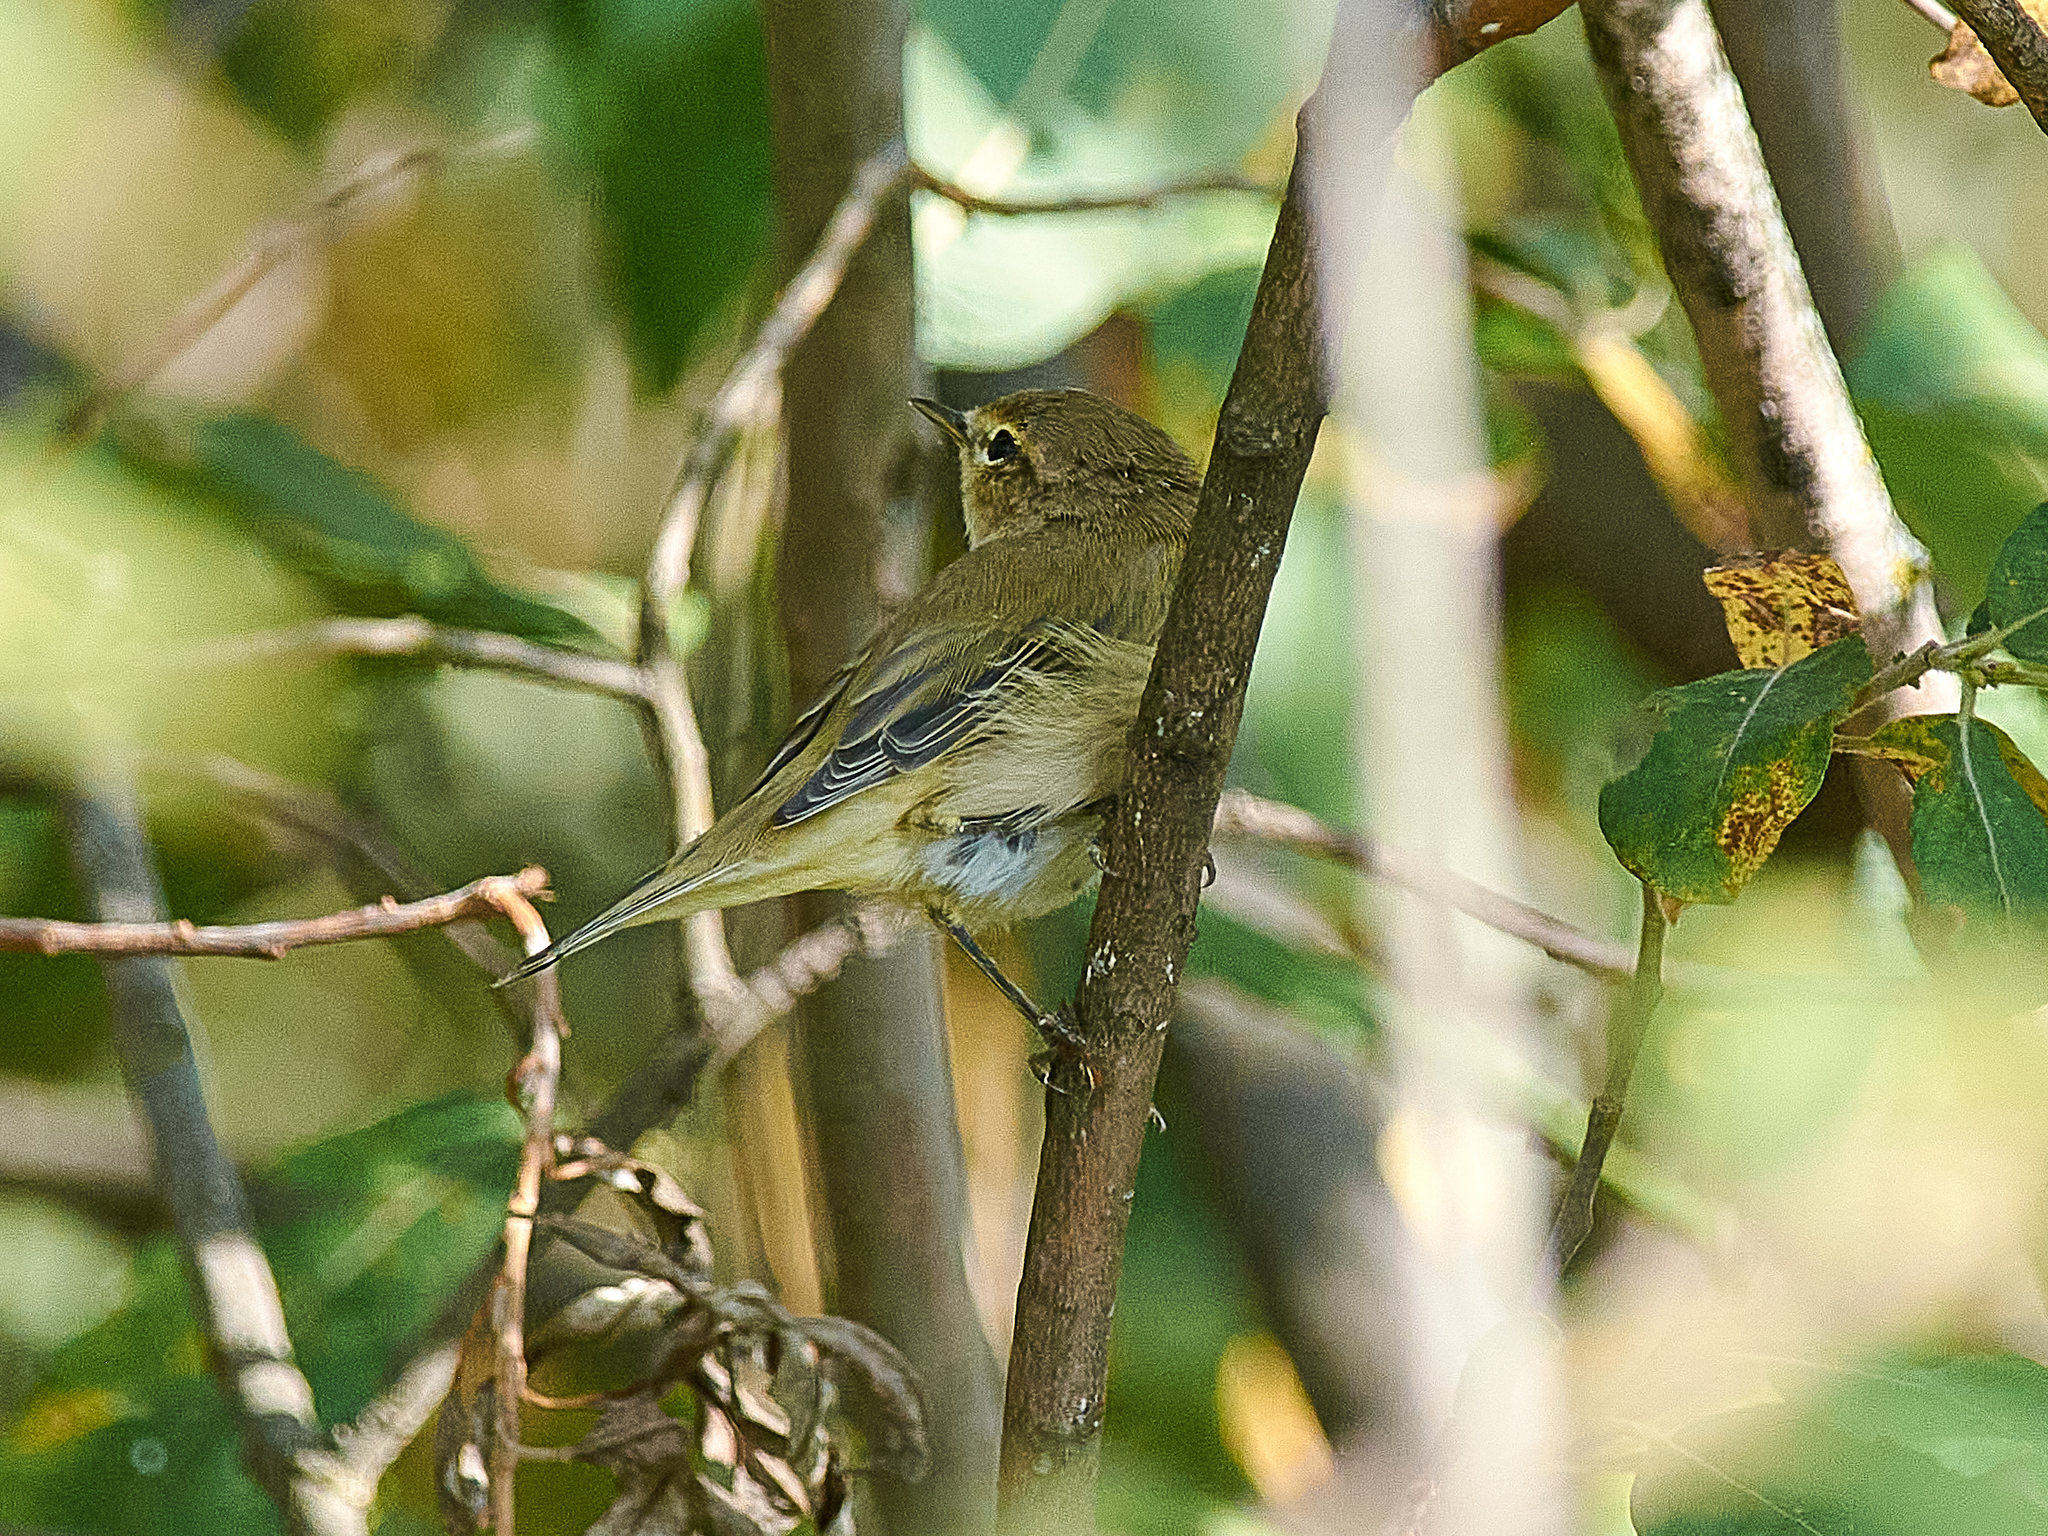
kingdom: Animalia
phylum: Chordata
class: Aves
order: Passeriformes
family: Phylloscopidae
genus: Phylloscopus
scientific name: Phylloscopus collybita
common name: Common chiffchaff
